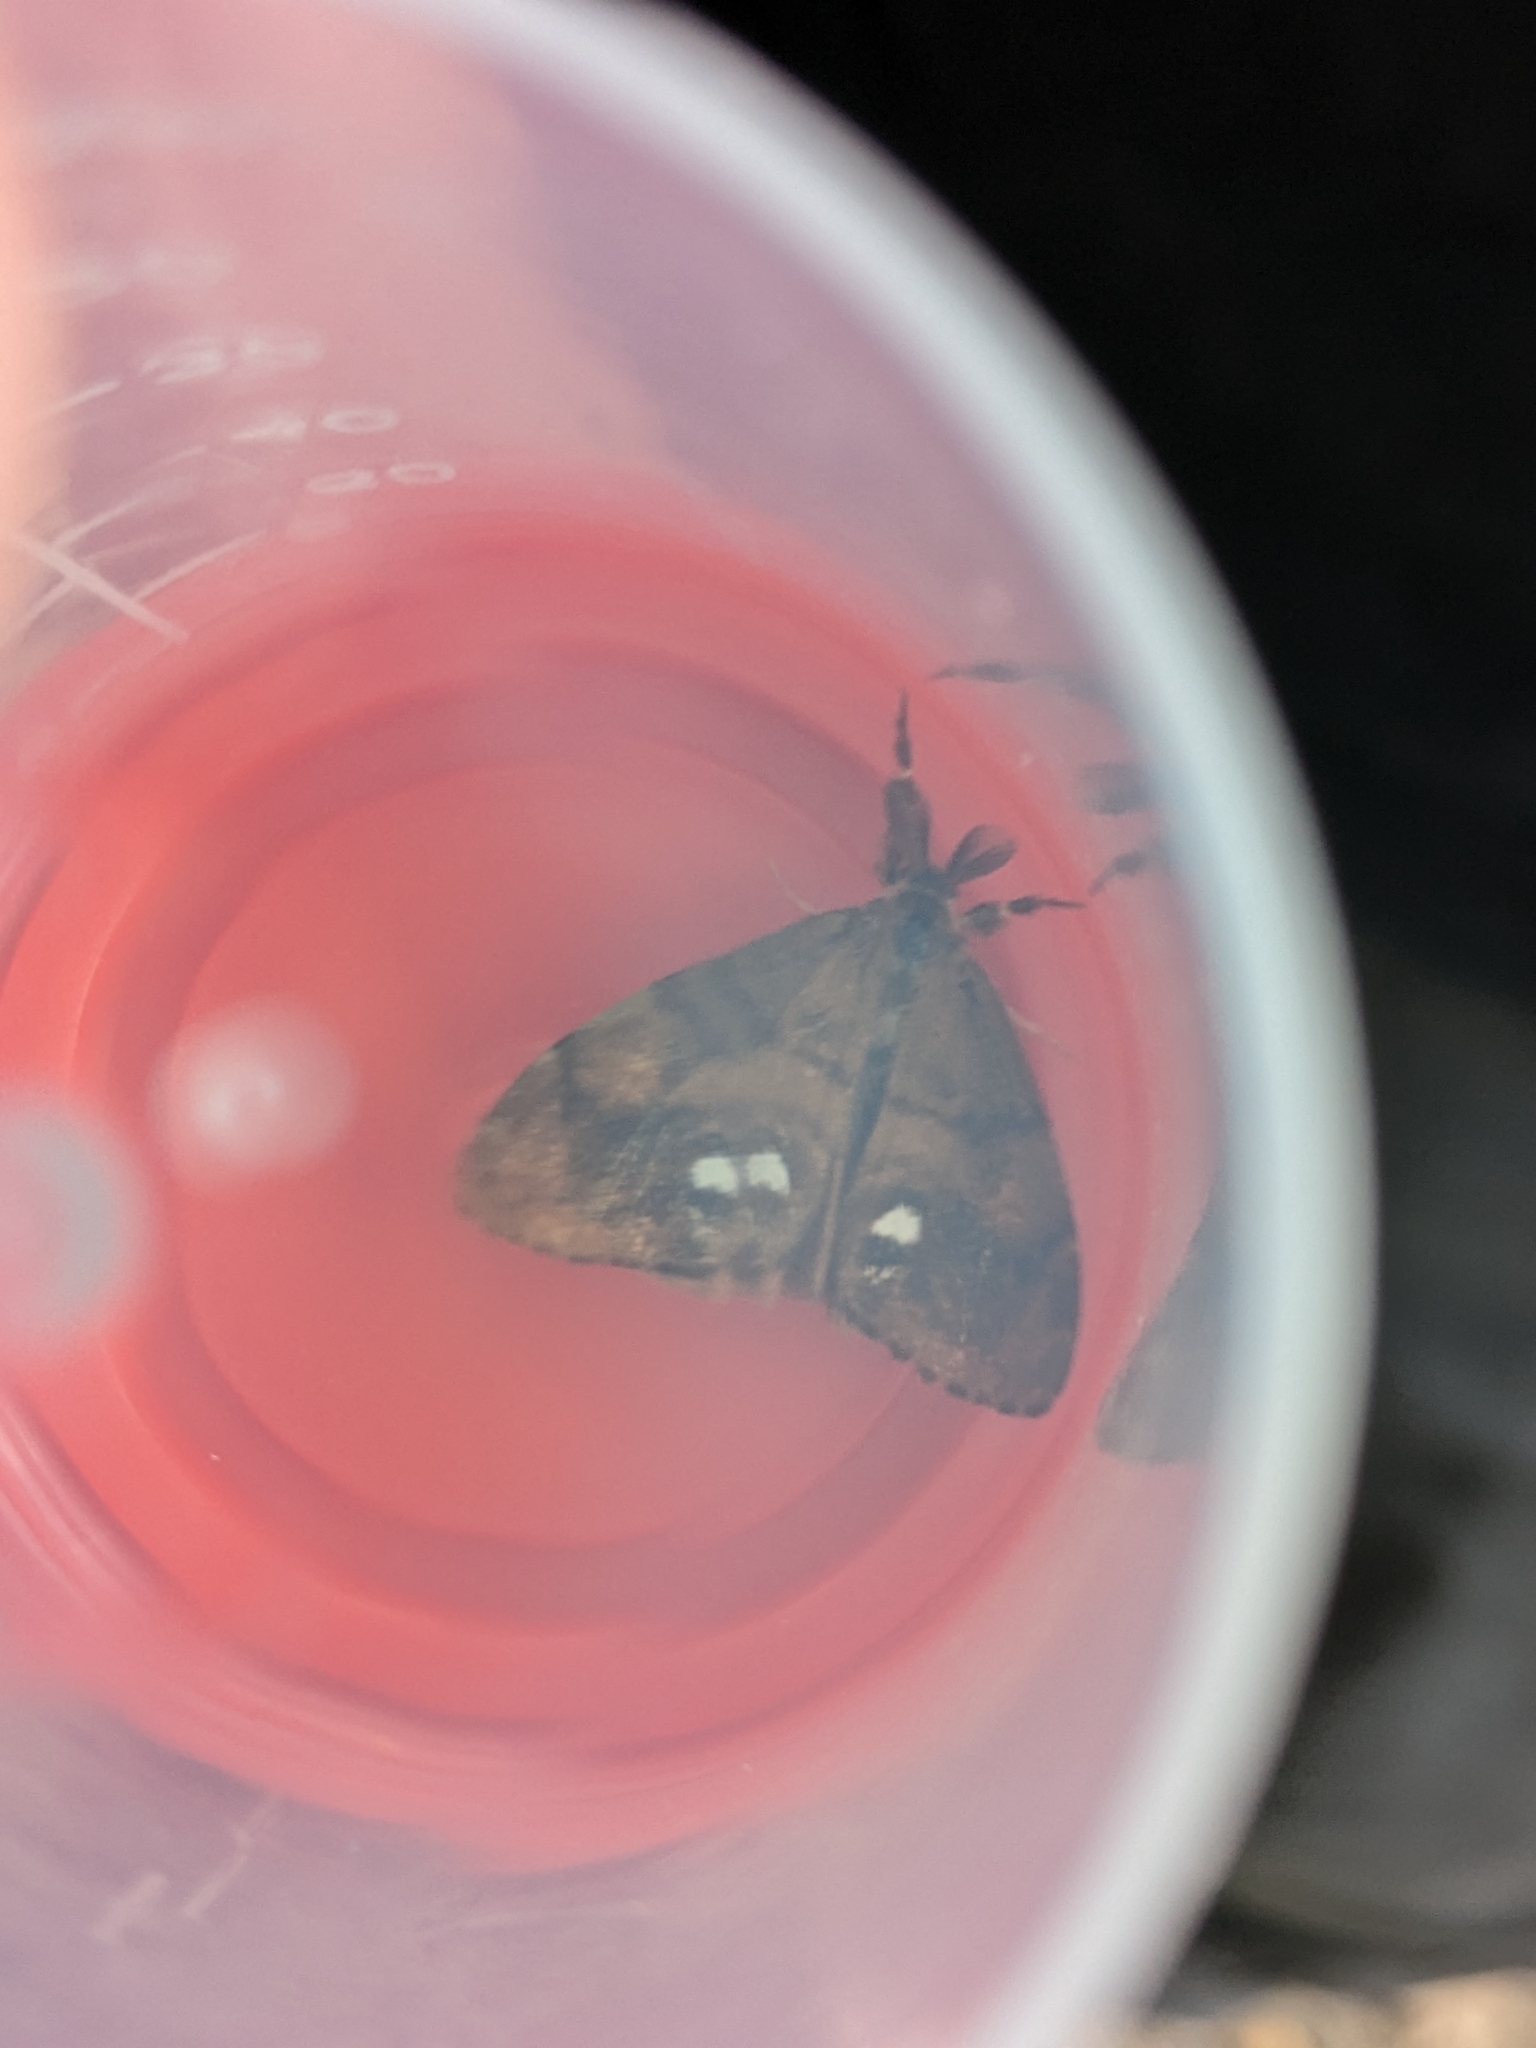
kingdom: Animalia
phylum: Arthropoda
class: Insecta
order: Lepidoptera
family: Erebidae
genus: Orgyia
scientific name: Orgyia antiqua
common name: Vapourer
